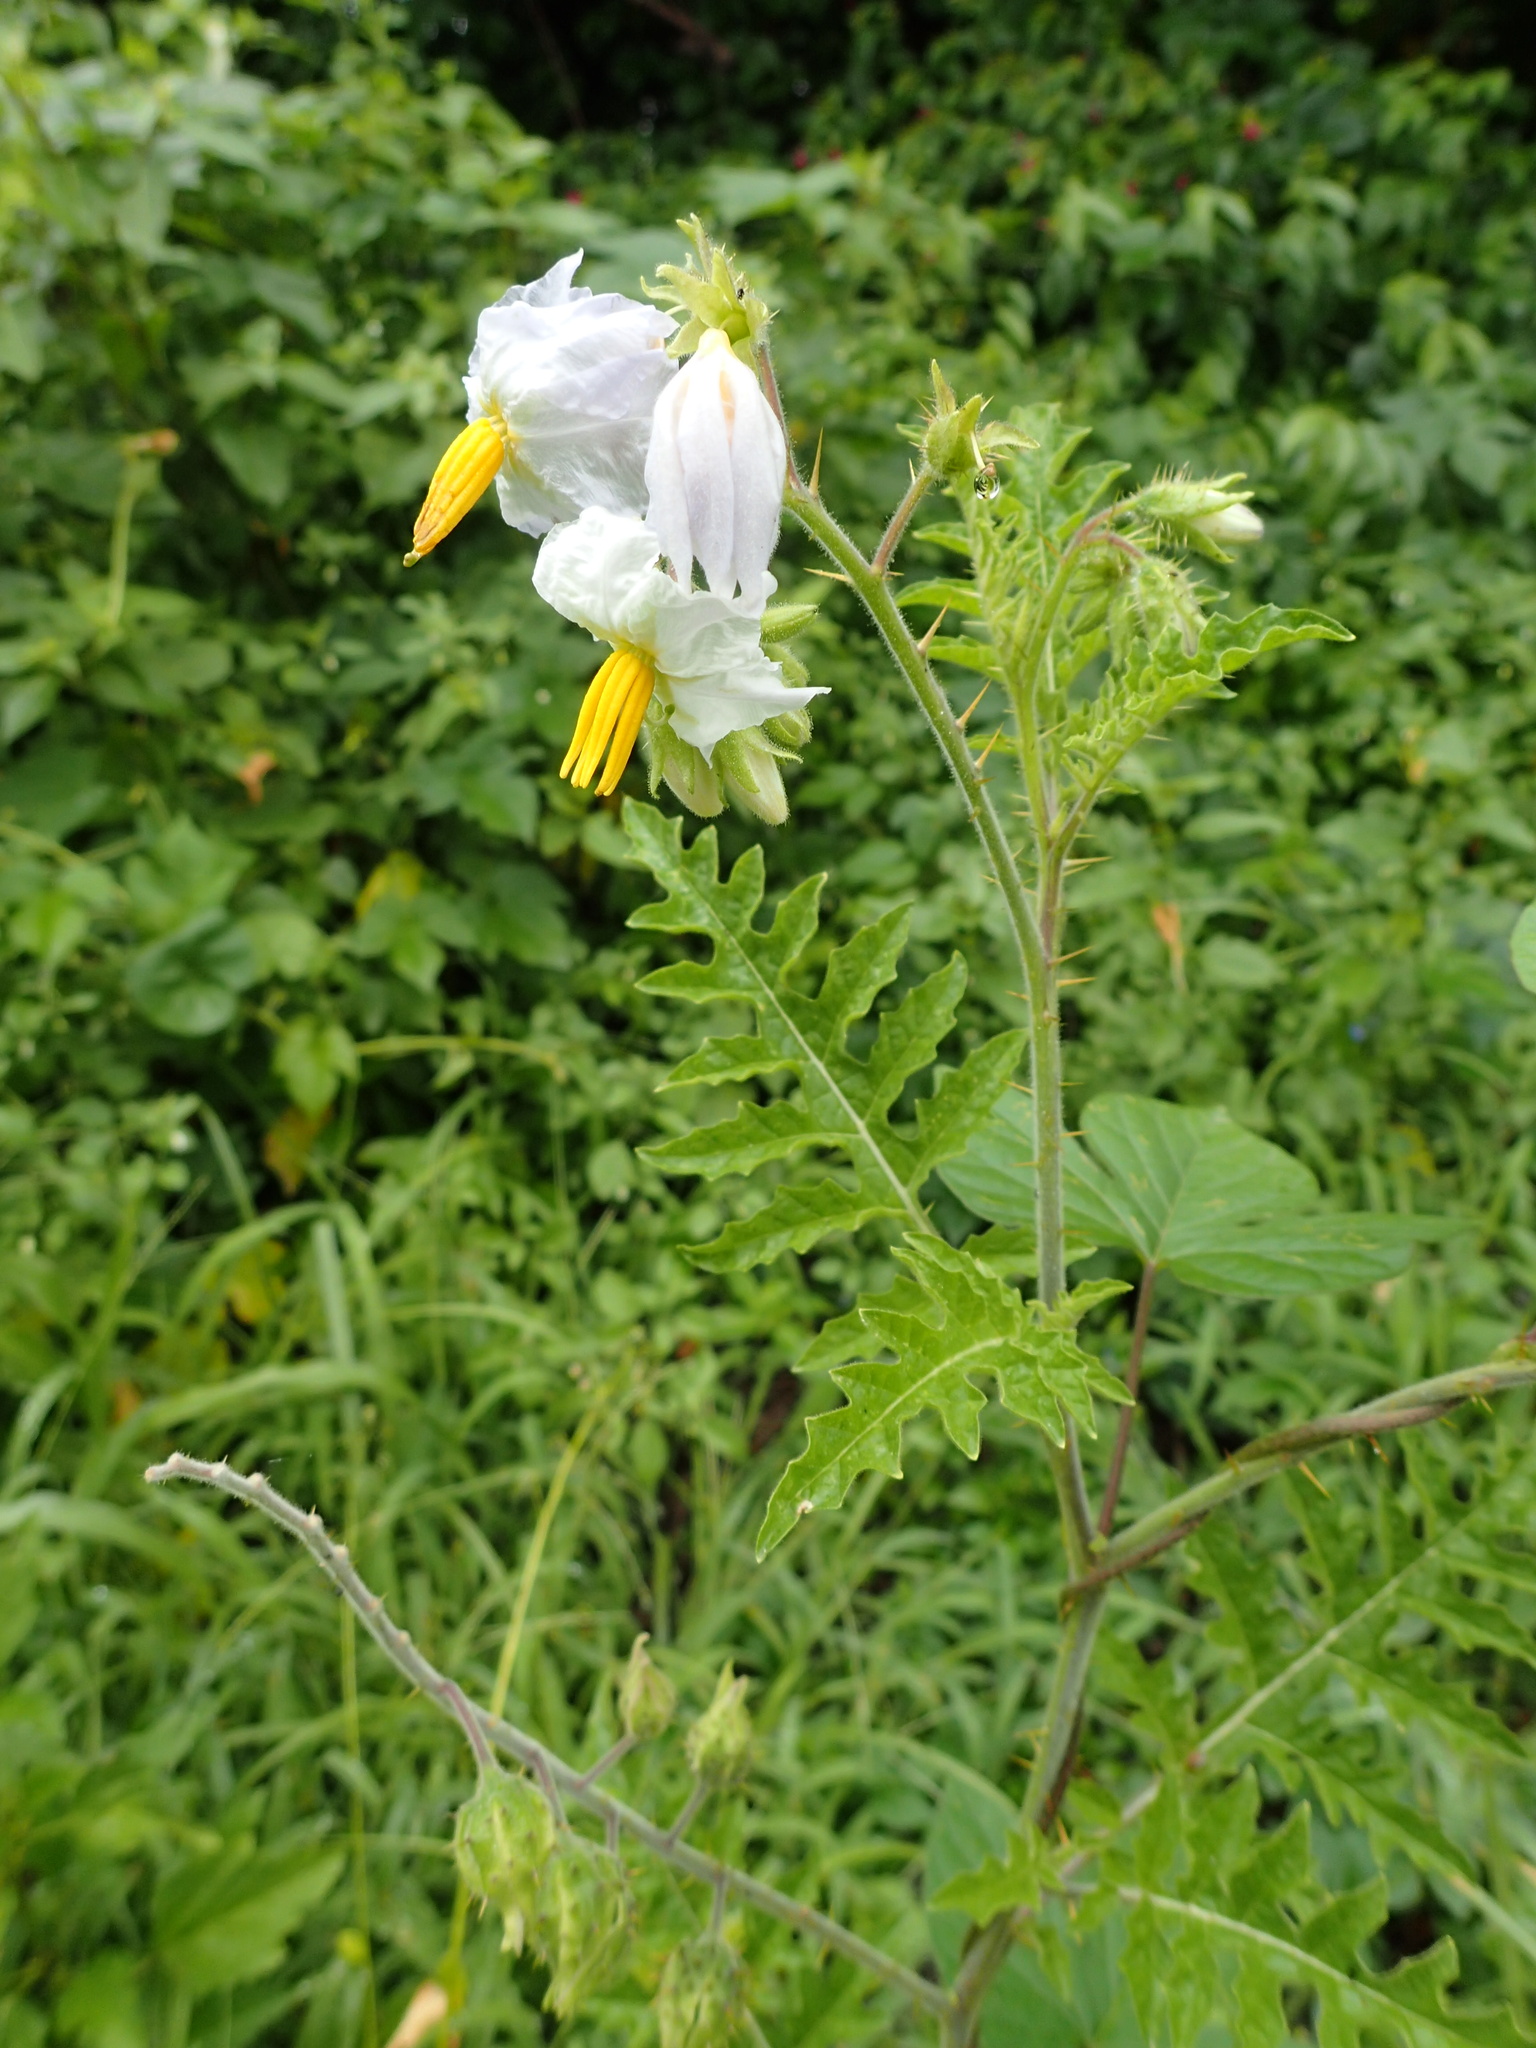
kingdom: Plantae
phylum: Tracheophyta
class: Magnoliopsida
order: Solanales
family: Solanaceae
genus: Solanum
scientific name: Solanum sisymbriifolium
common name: Red buffalo-bur
